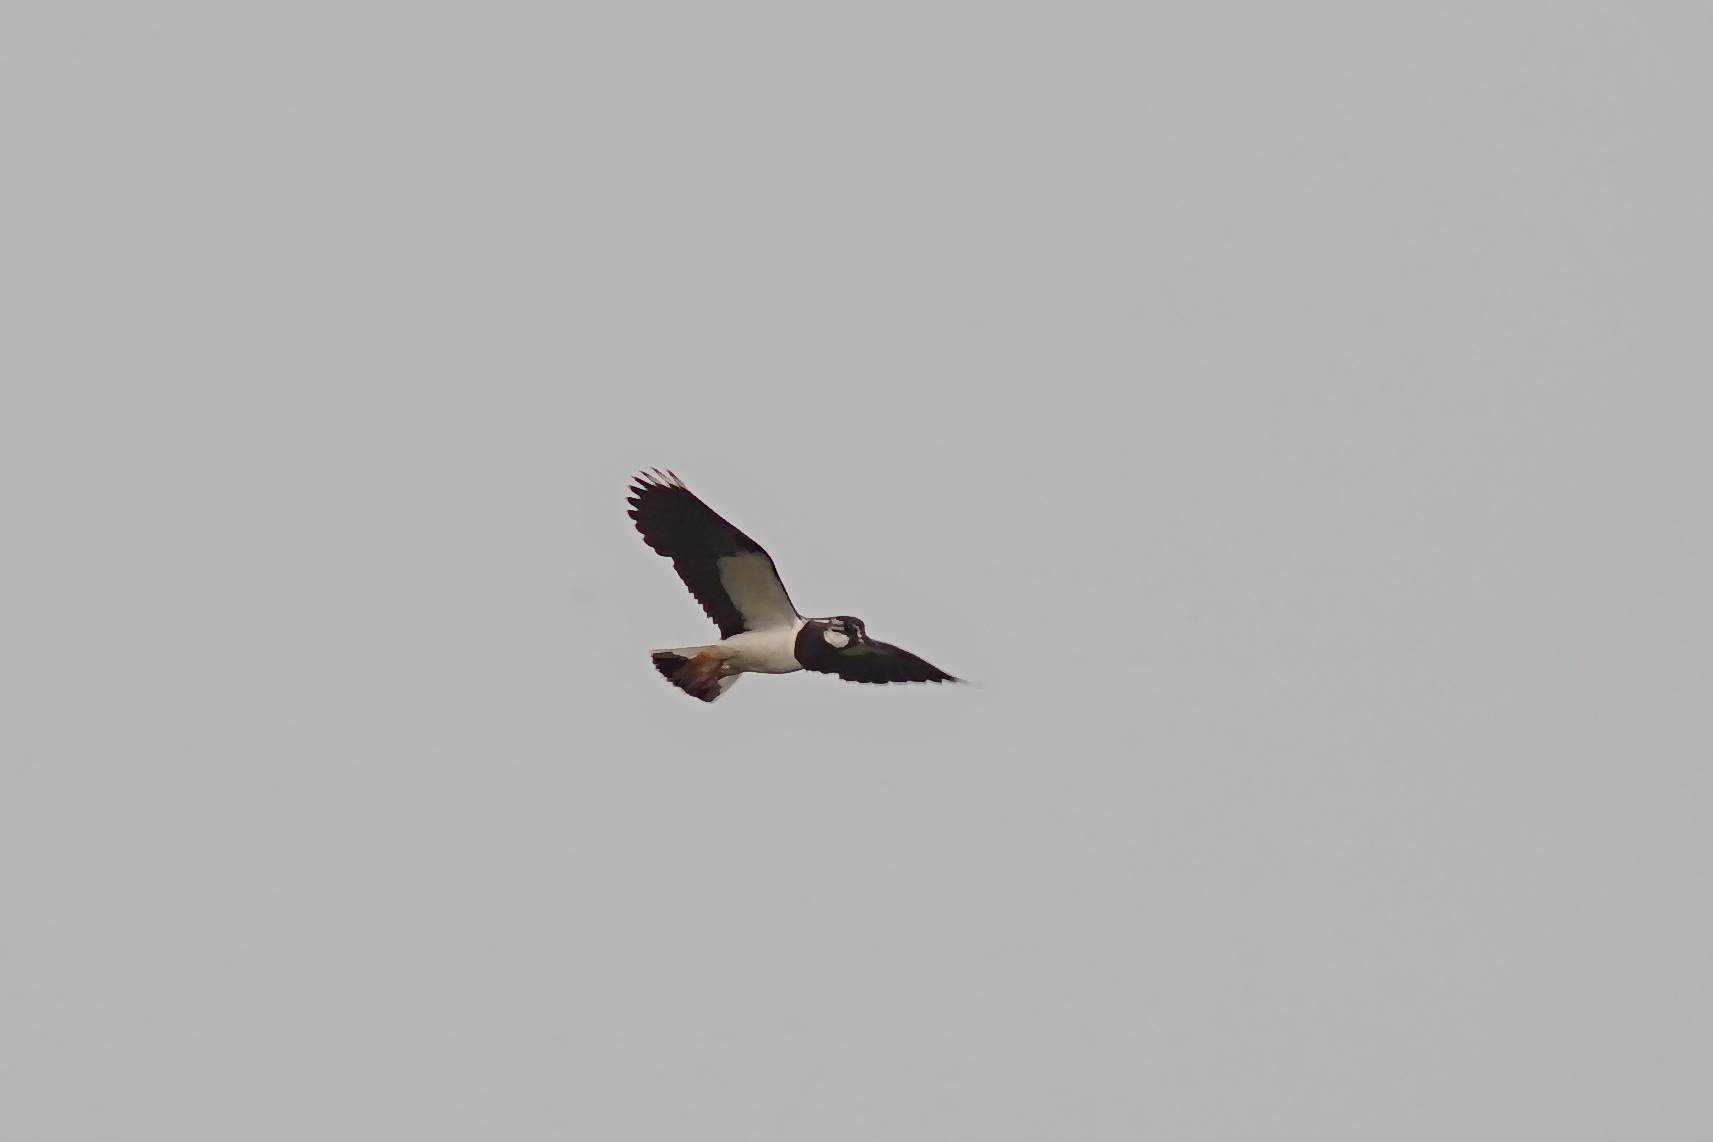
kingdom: Animalia
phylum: Chordata
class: Aves
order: Charadriiformes
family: Charadriidae
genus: Vanellus
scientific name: Vanellus vanellus
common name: Northern lapwing
